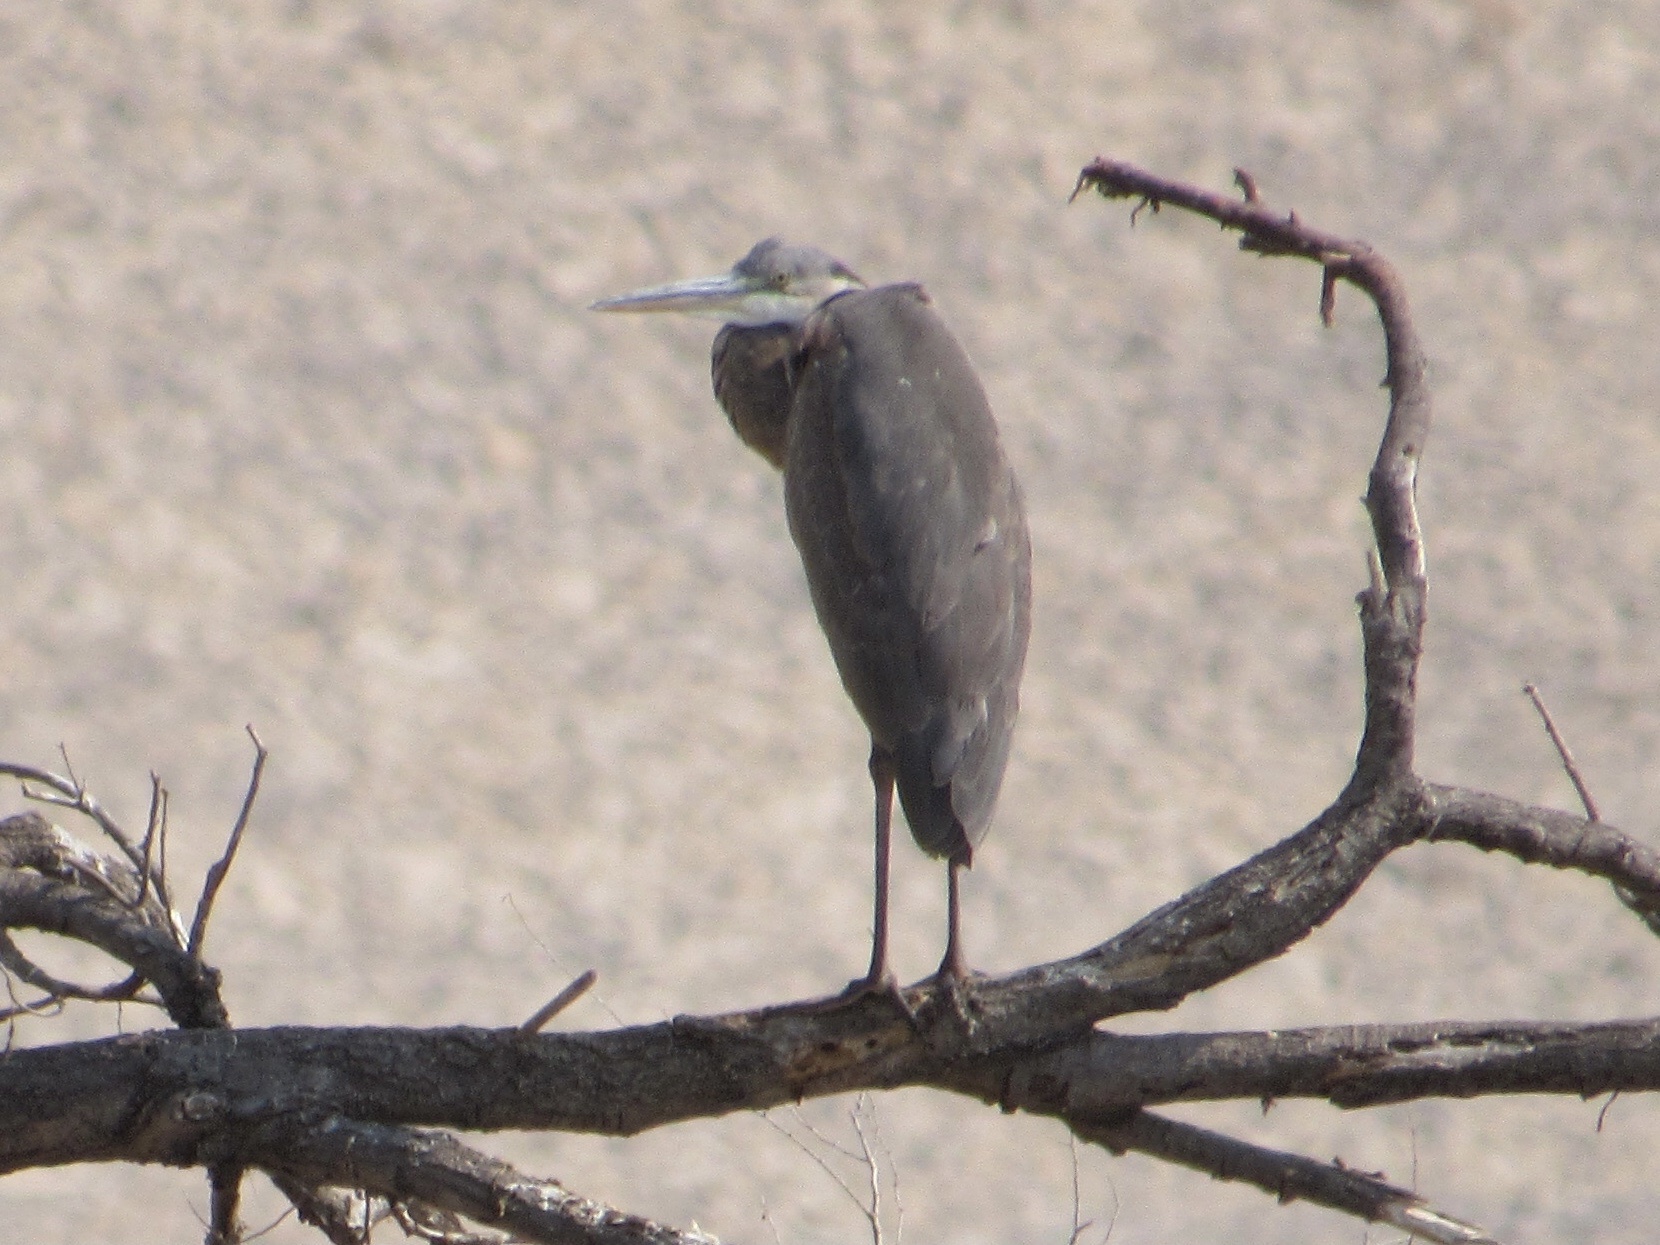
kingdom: Animalia
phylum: Chordata
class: Aves
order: Pelecaniformes
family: Ardeidae
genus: Ardea
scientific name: Ardea herodias
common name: Great blue heron
